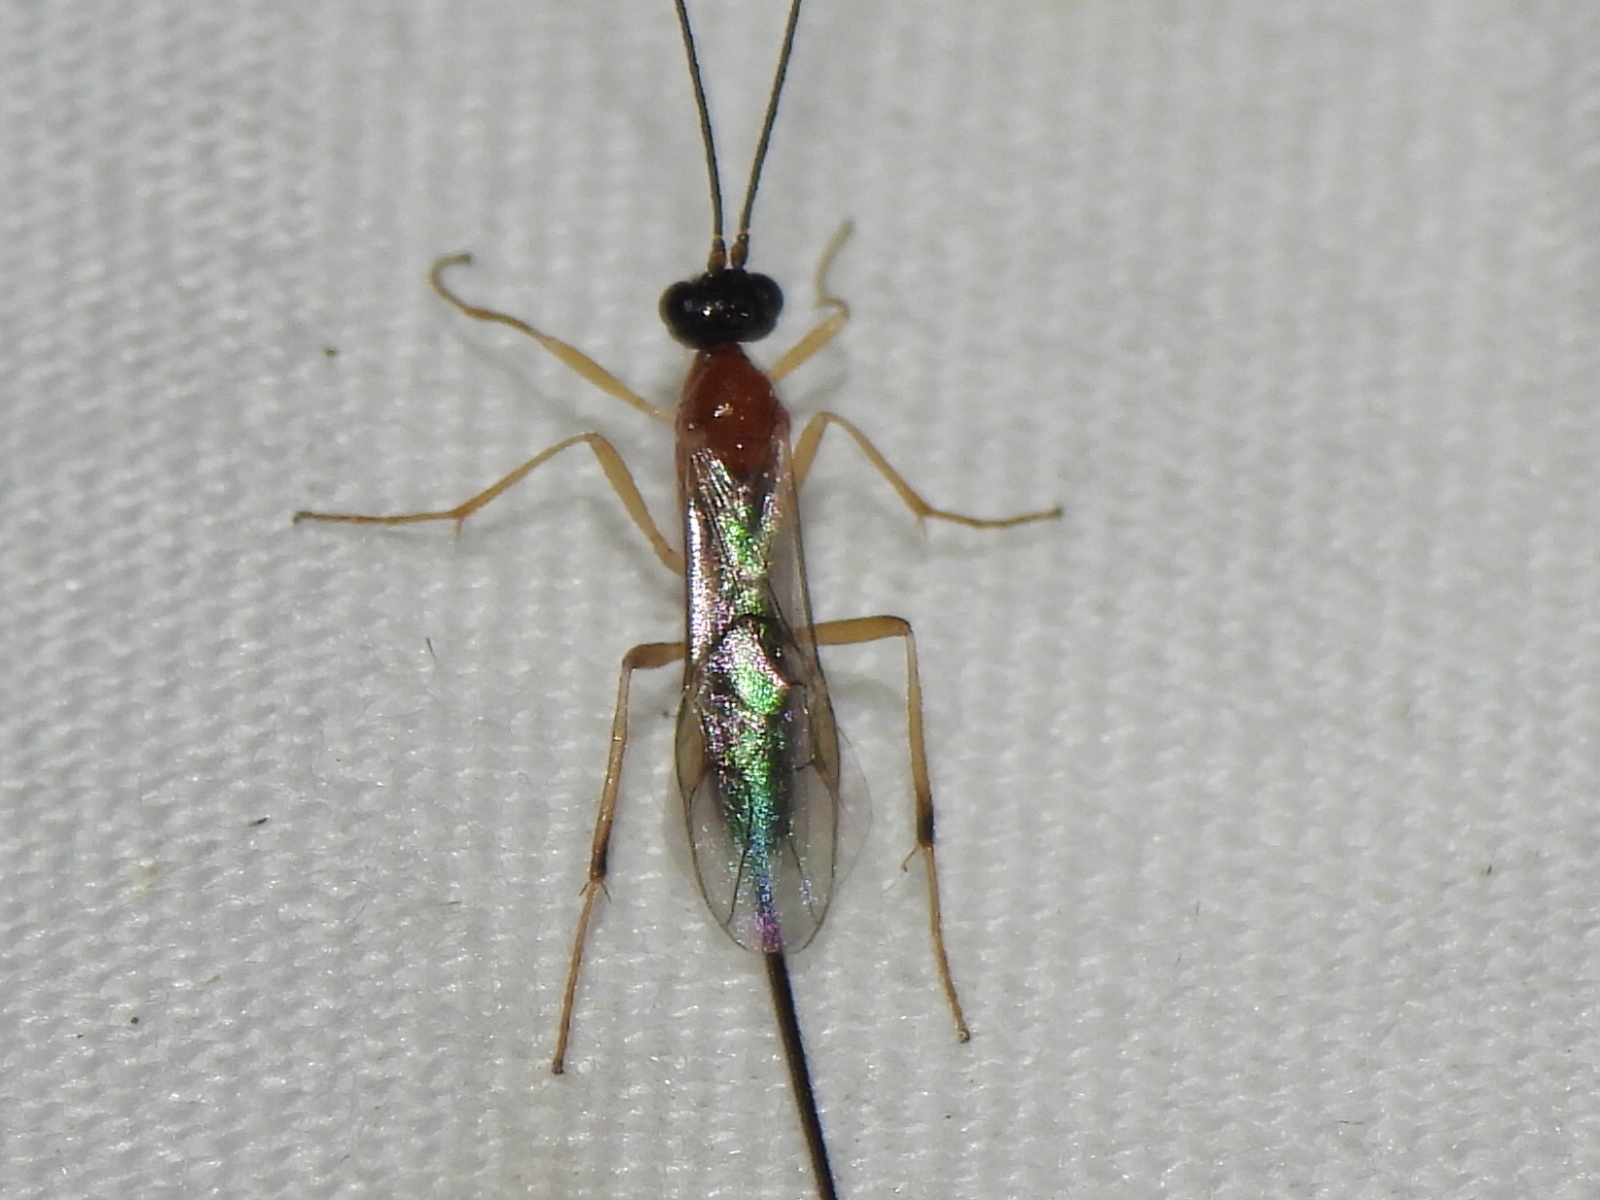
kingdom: Animalia
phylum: Arthropoda
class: Insecta
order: Hymenoptera
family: Braconidae
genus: Charmon
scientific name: Charmon cruentatus
